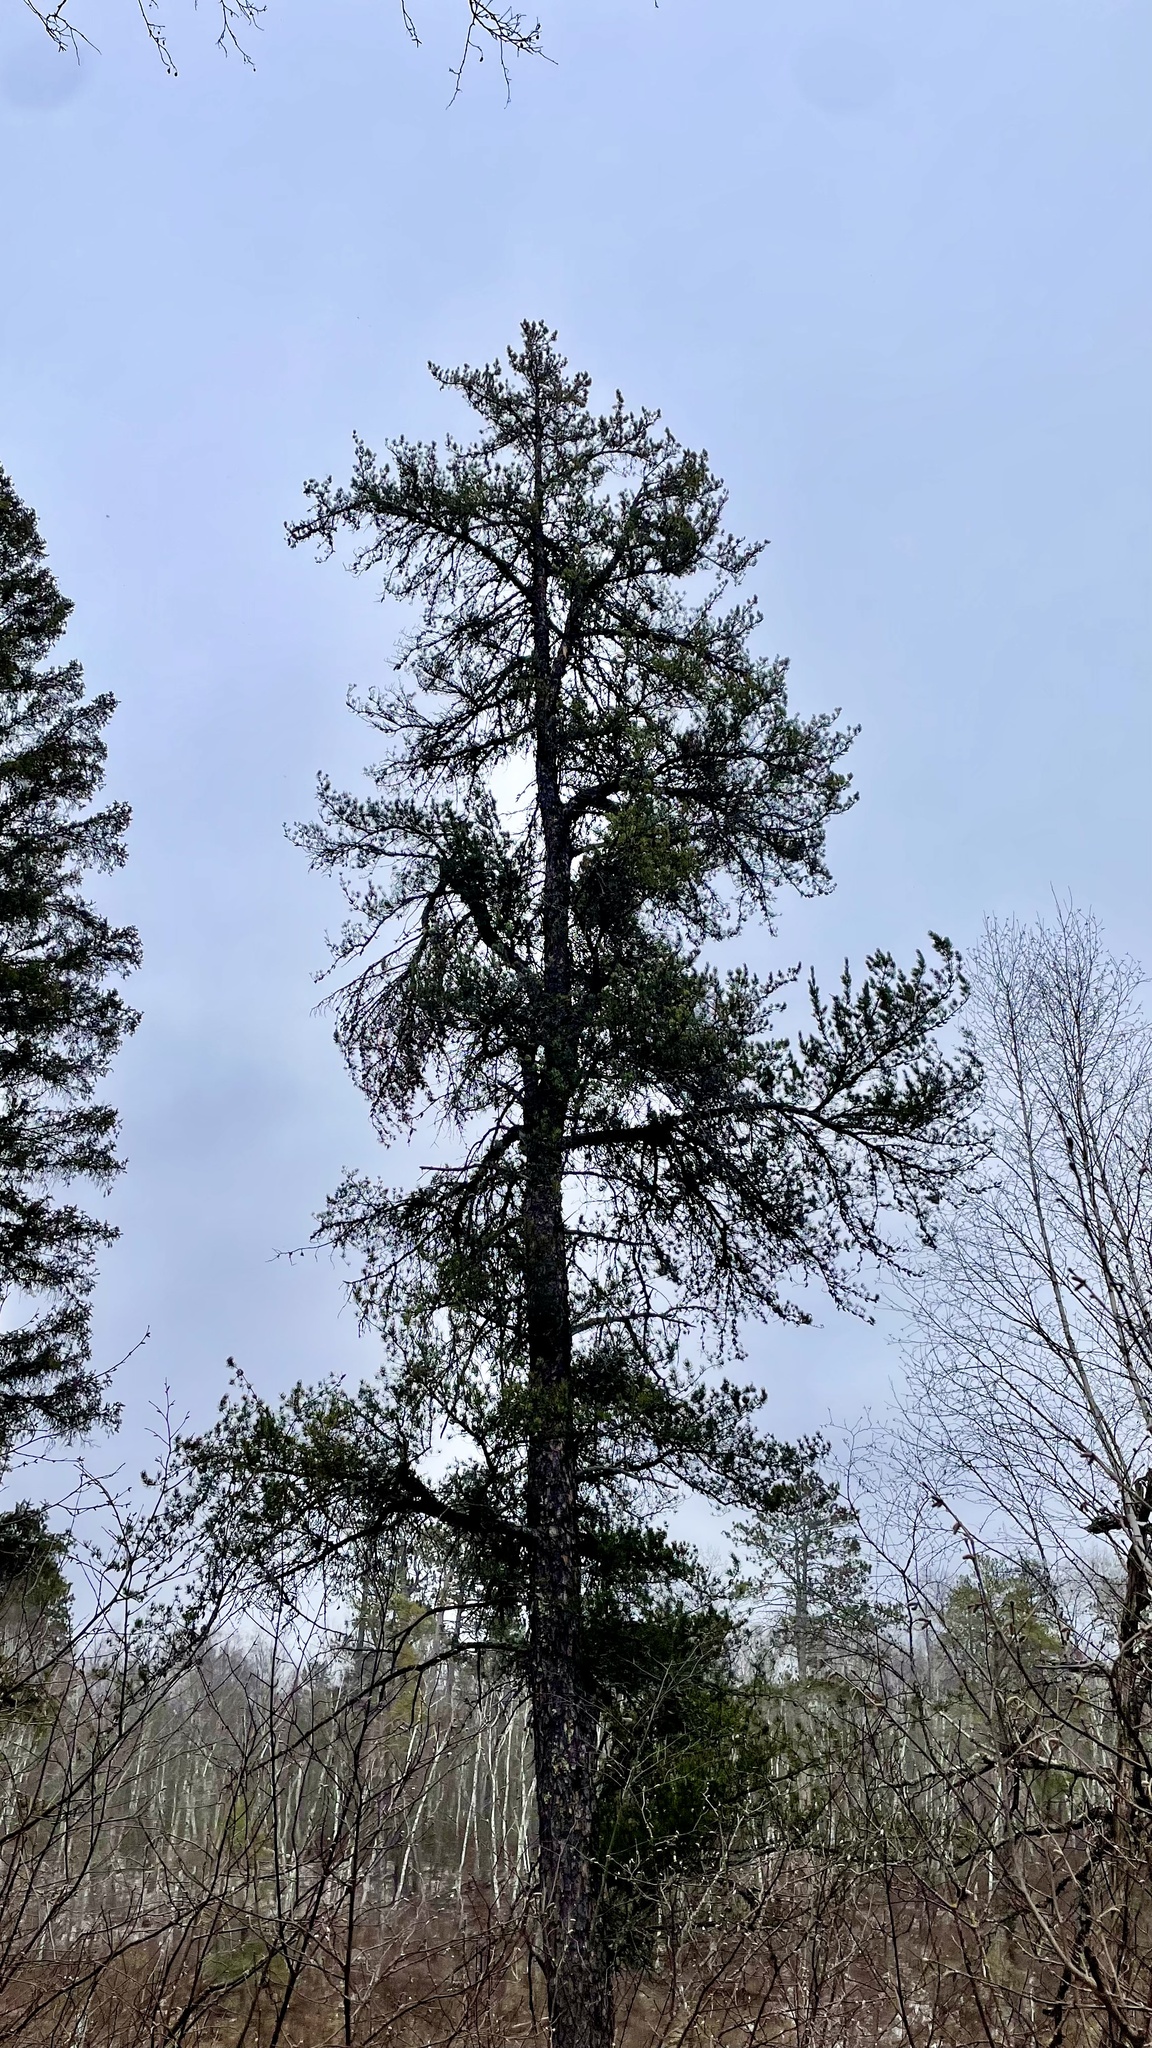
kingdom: Plantae
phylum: Tracheophyta
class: Pinopsida
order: Pinales
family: Pinaceae
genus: Pinus
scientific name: Pinus banksiana
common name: Jack pine
